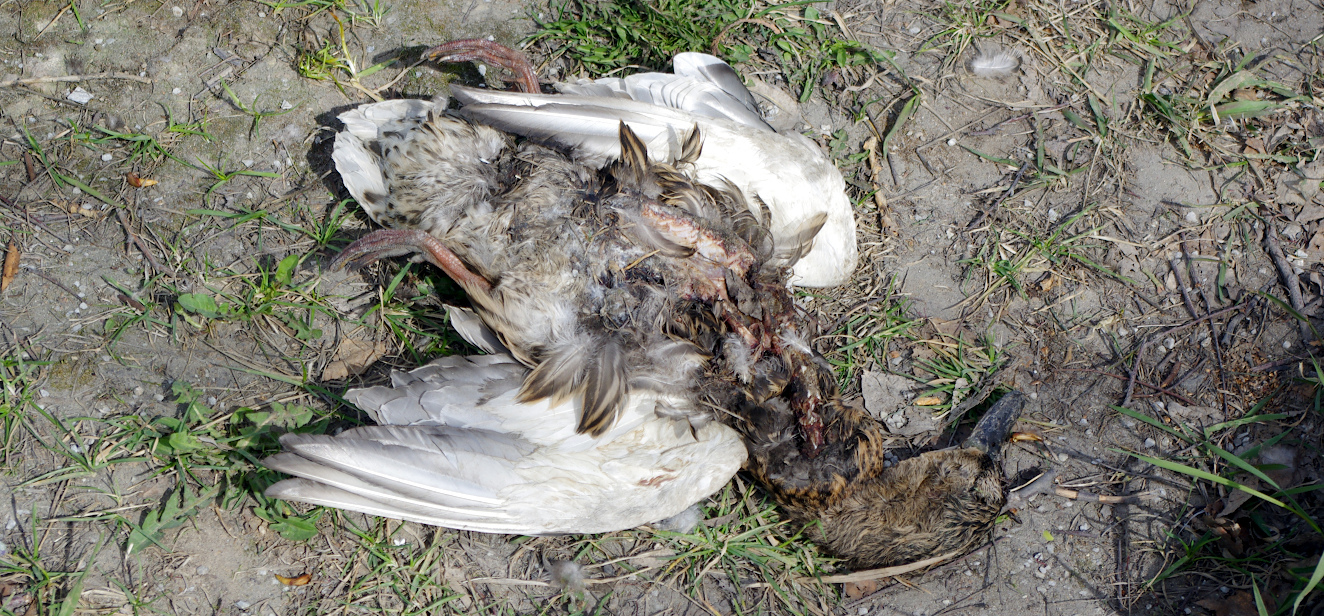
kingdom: Animalia
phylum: Chordata
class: Aves
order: Anseriformes
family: Anatidae
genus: Anas
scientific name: Anas platyrhynchos
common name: Mallard
